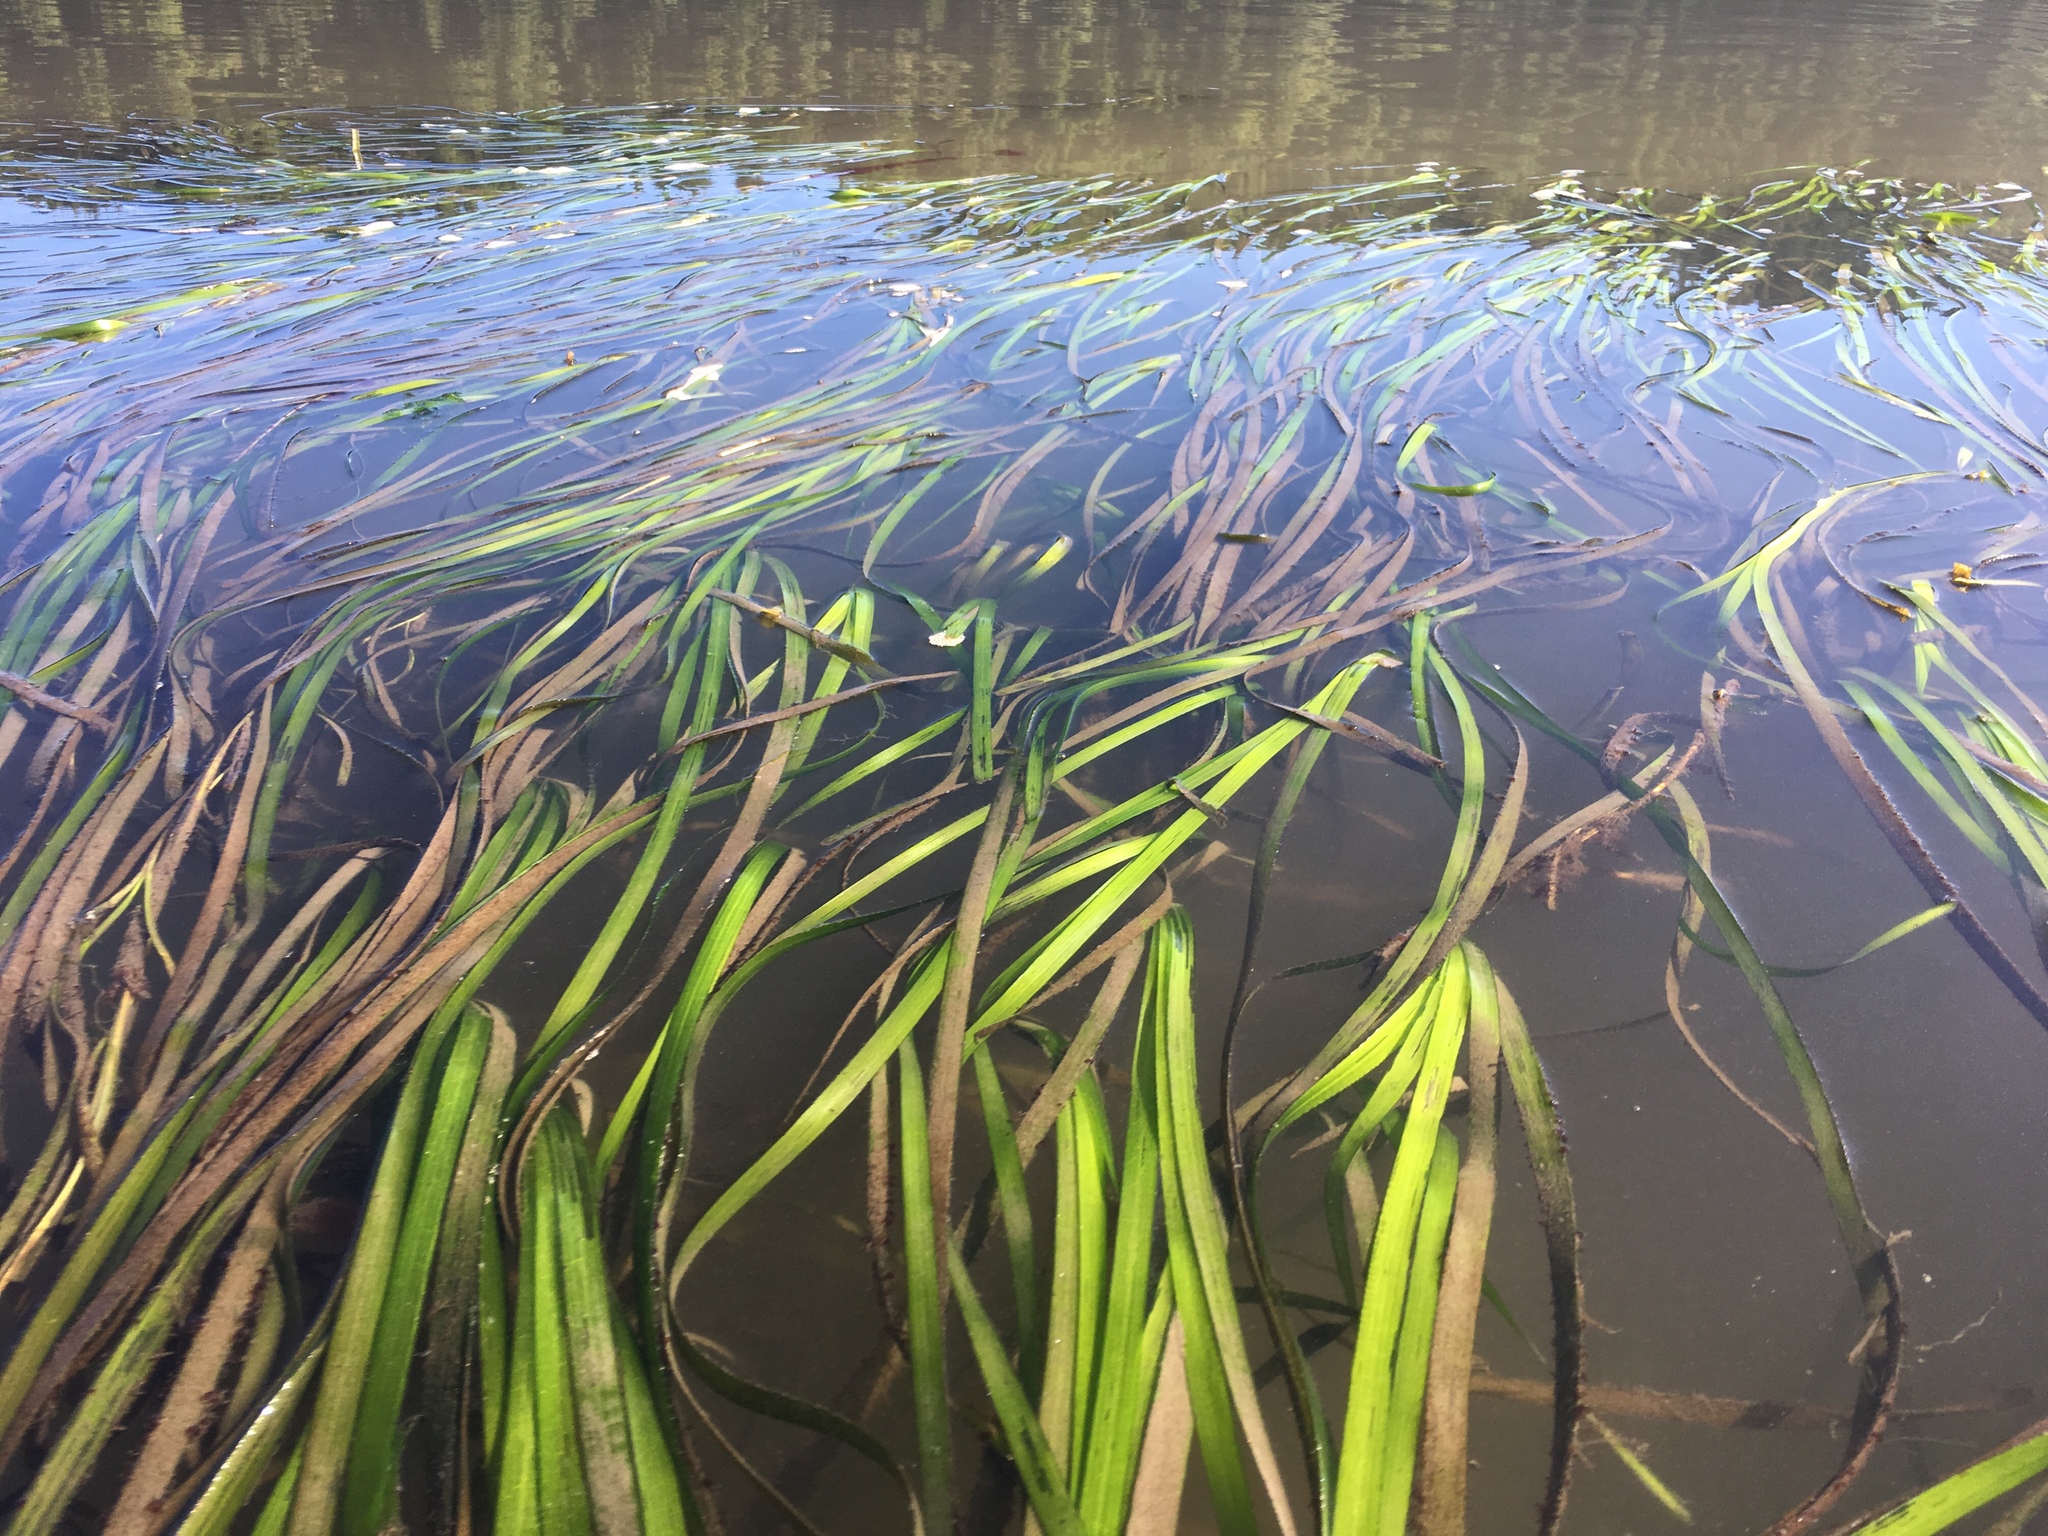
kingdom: Plantae
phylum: Tracheophyta
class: Liliopsida
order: Alismatales
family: Zosteraceae
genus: Zostera
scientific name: Zostera marina
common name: Eelgrass
